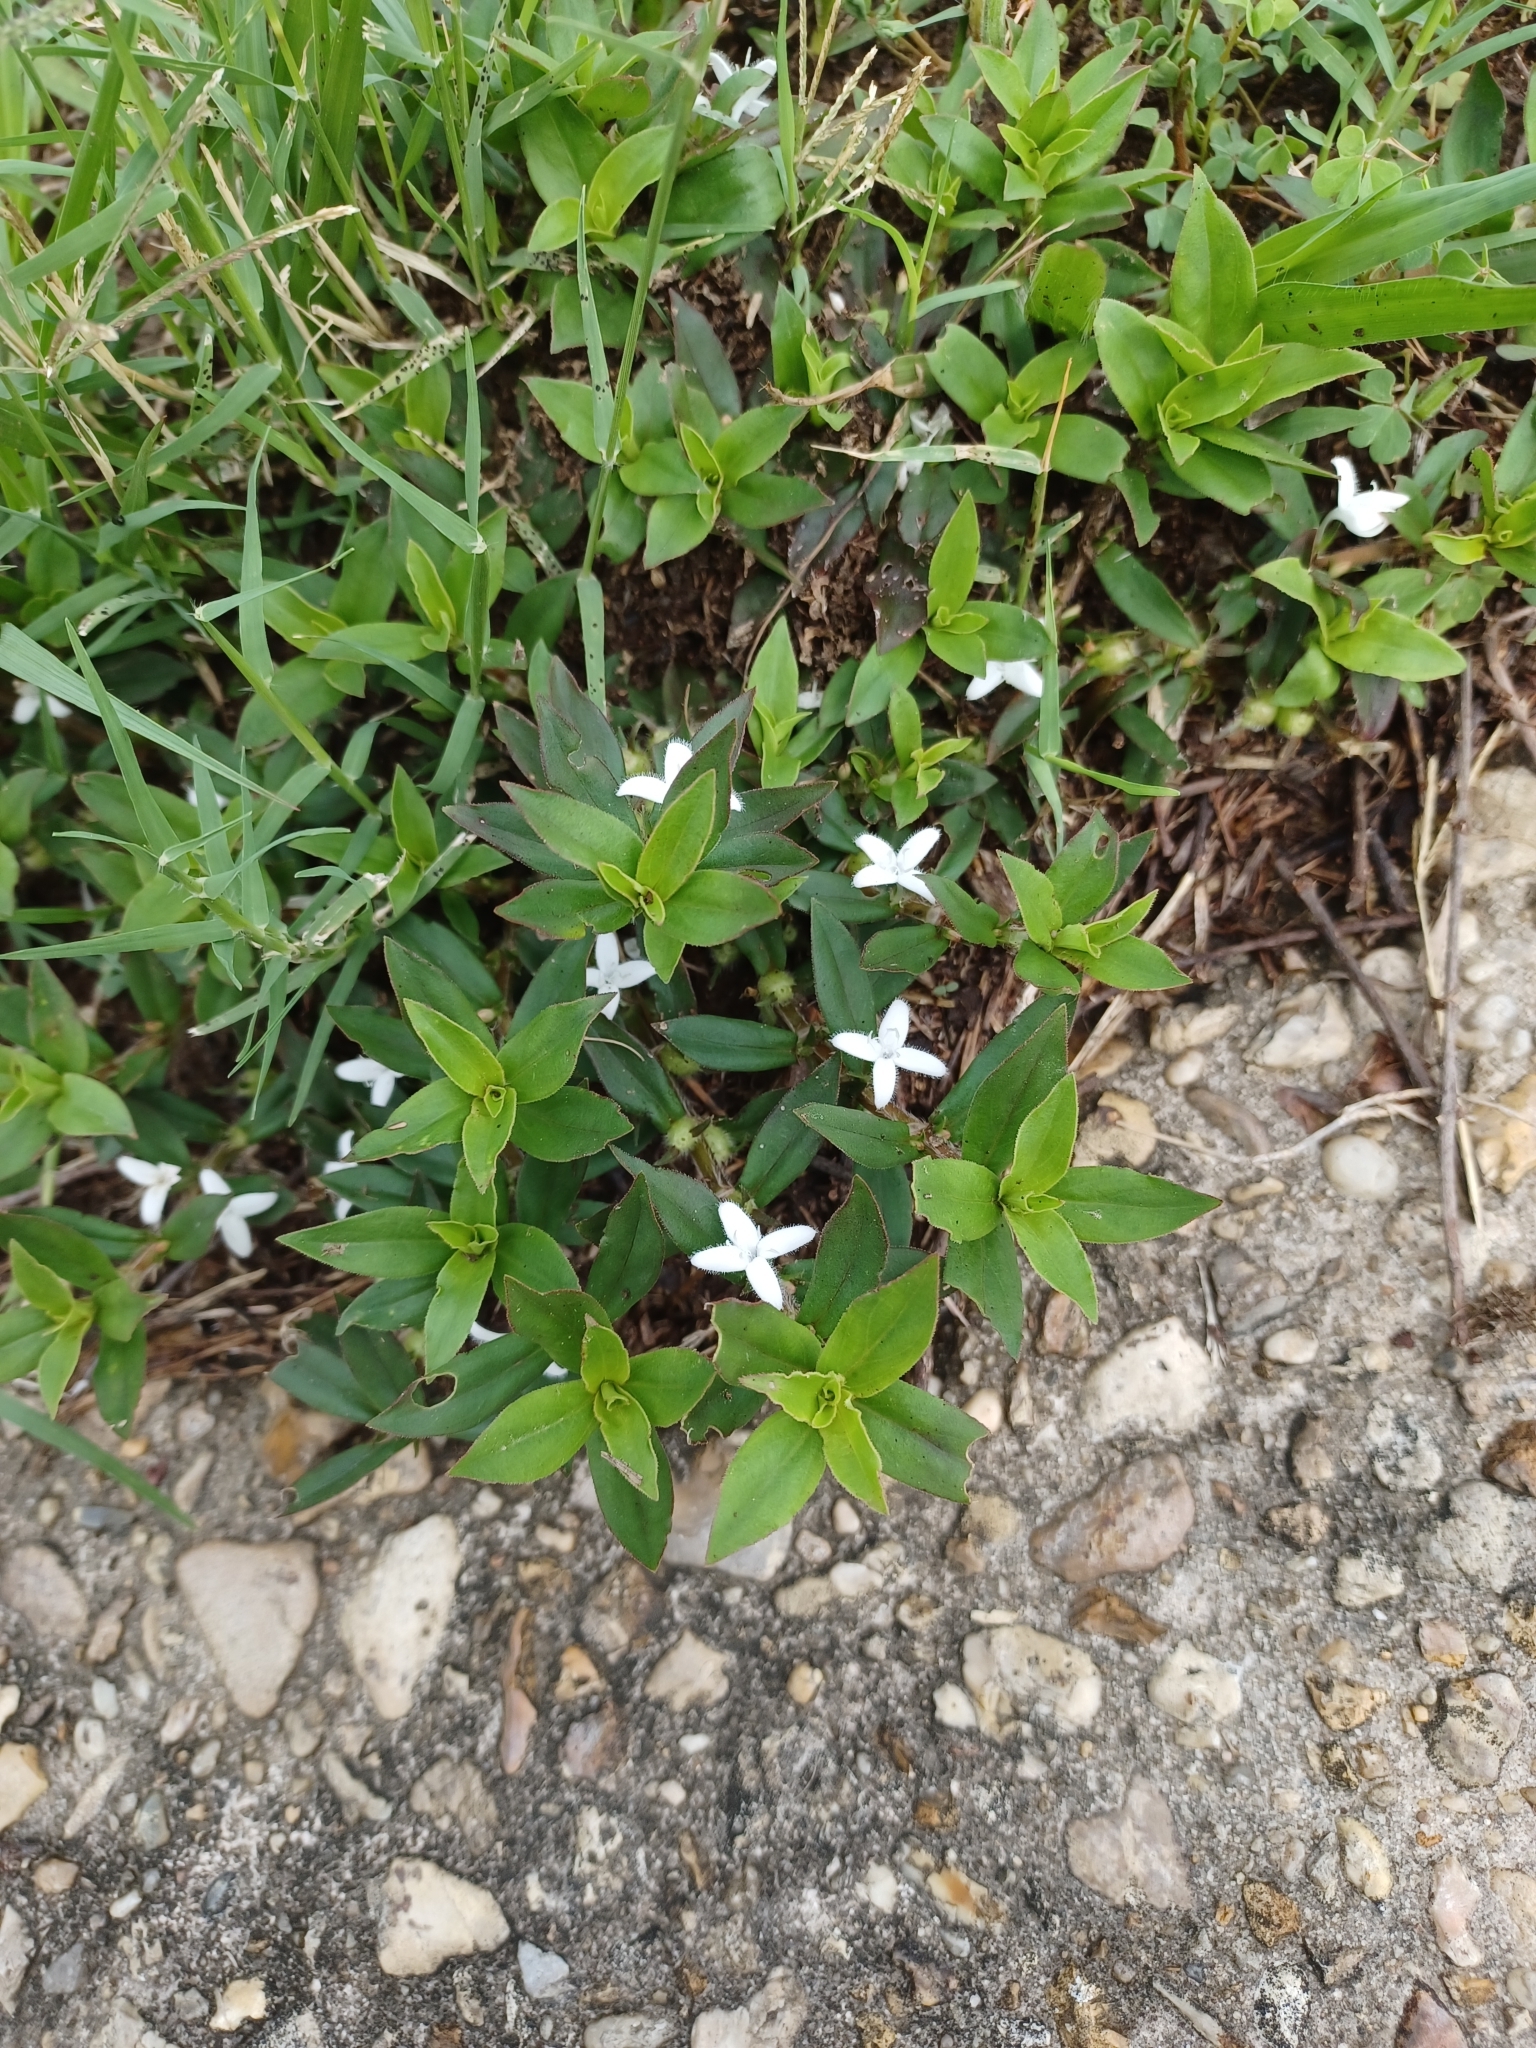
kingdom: Plantae
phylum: Tracheophyta
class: Magnoliopsida
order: Gentianales
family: Rubiaceae
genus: Diodia
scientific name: Diodia virginiana
